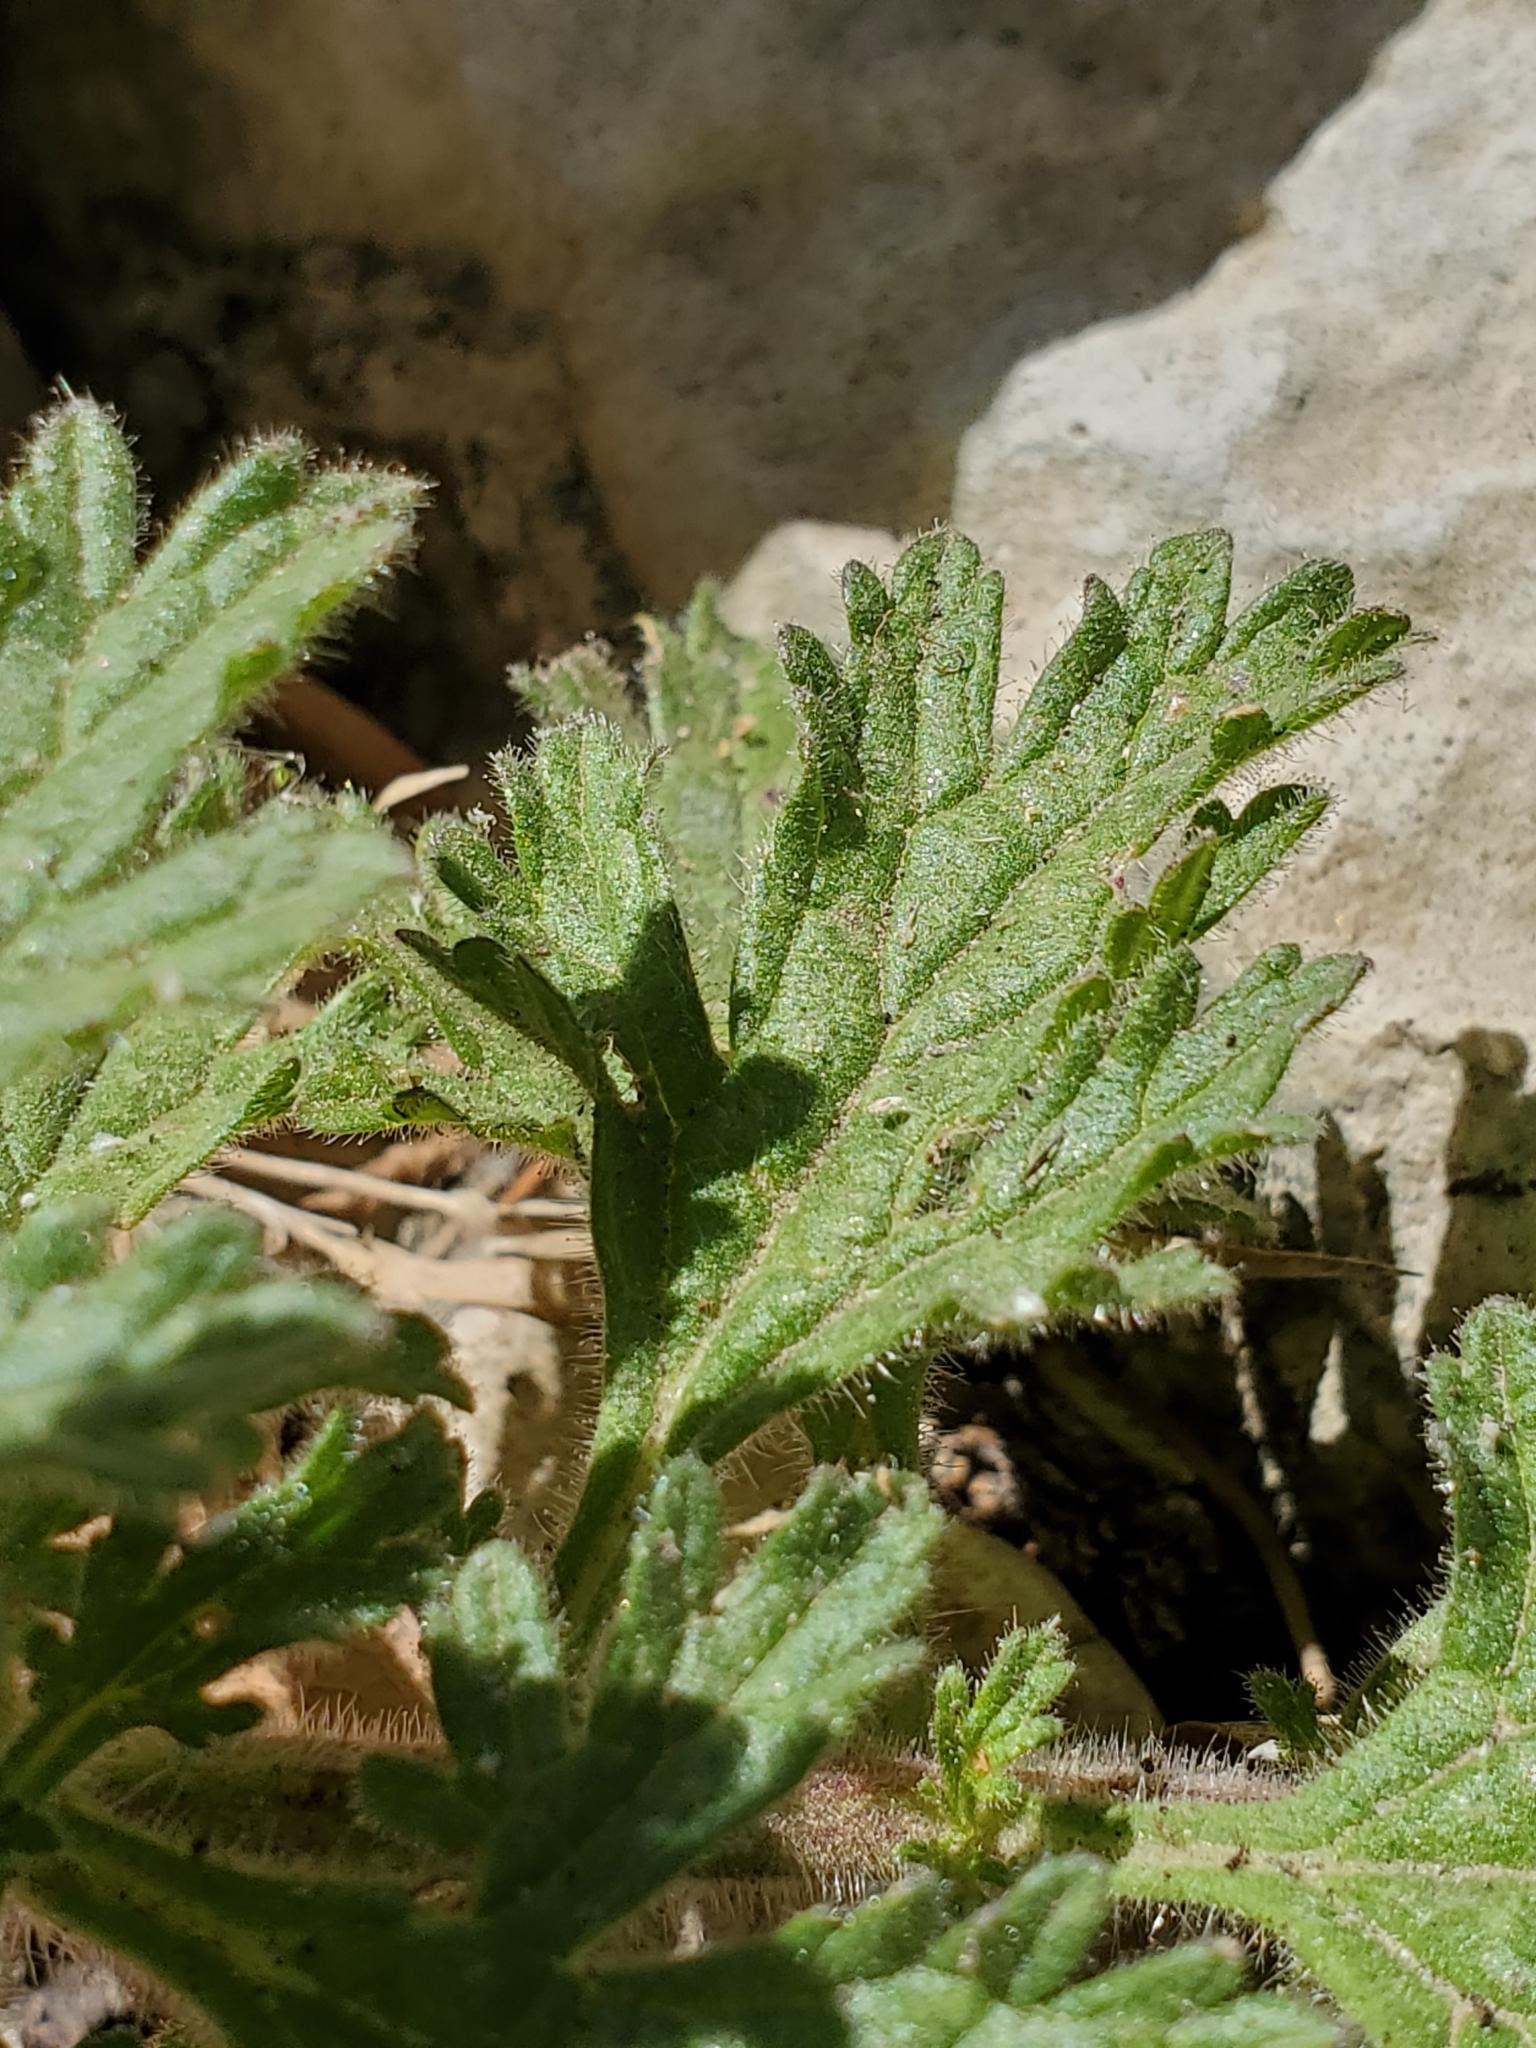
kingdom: Plantae
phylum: Tracheophyta
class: Magnoliopsida
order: Lamiales
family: Verbenaceae
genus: Verbena
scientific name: Verbena tumidula
